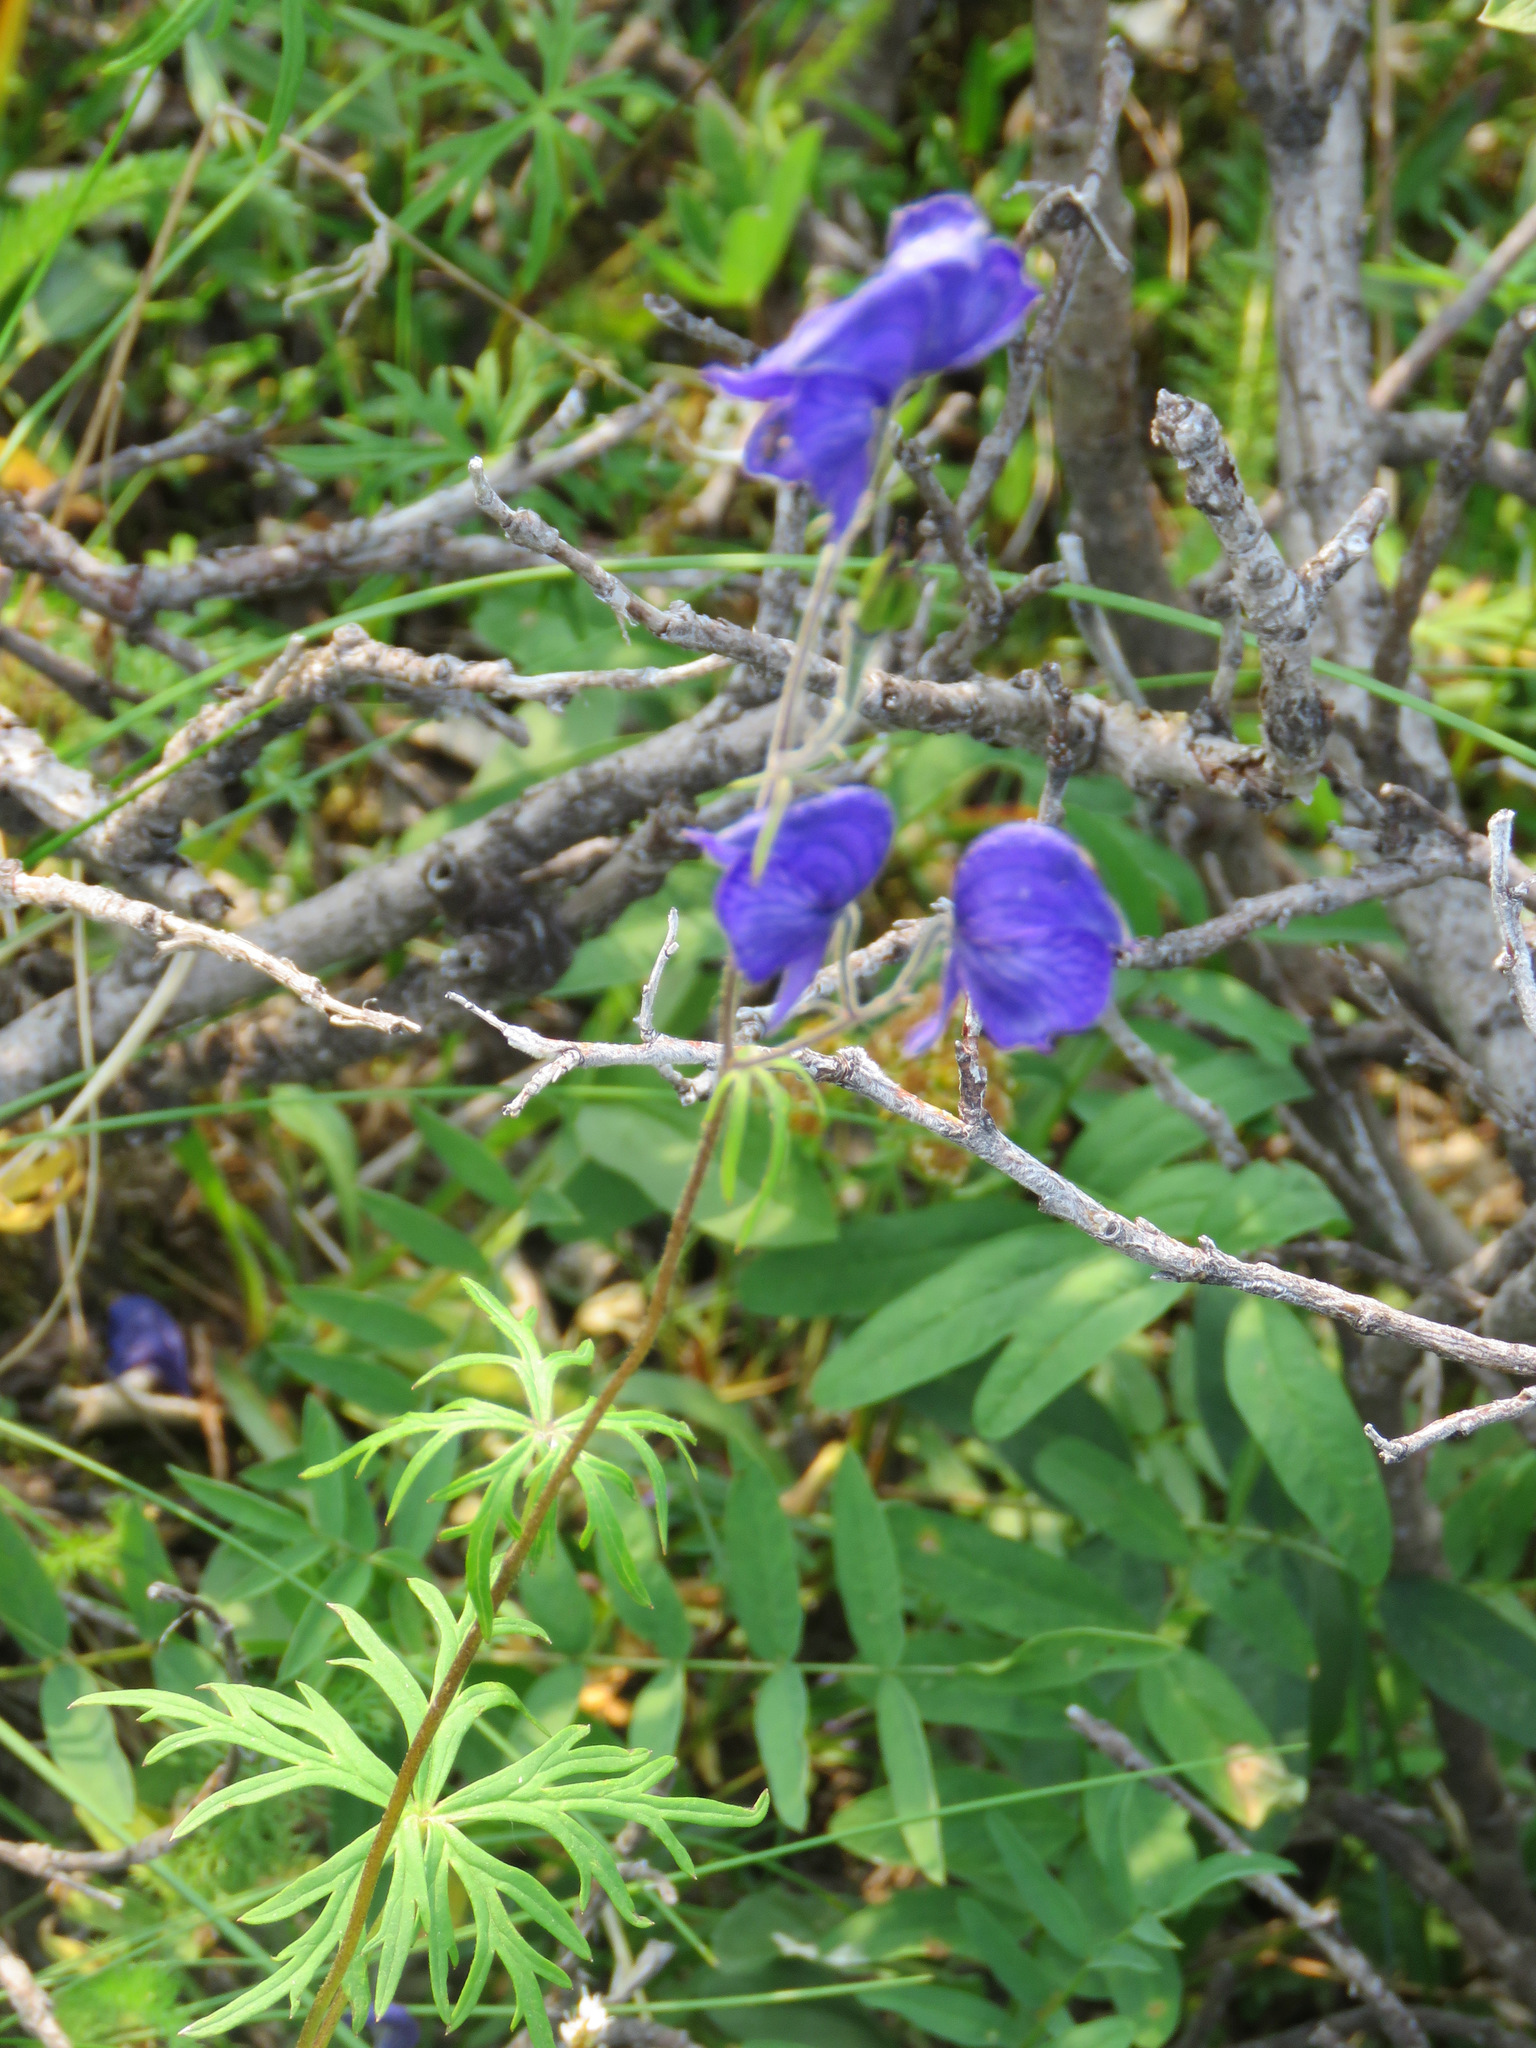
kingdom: Plantae
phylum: Tracheophyta
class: Magnoliopsida
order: Ranunculales
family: Ranunculaceae
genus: Aconitum
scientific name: Aconitum delphiniifolium
